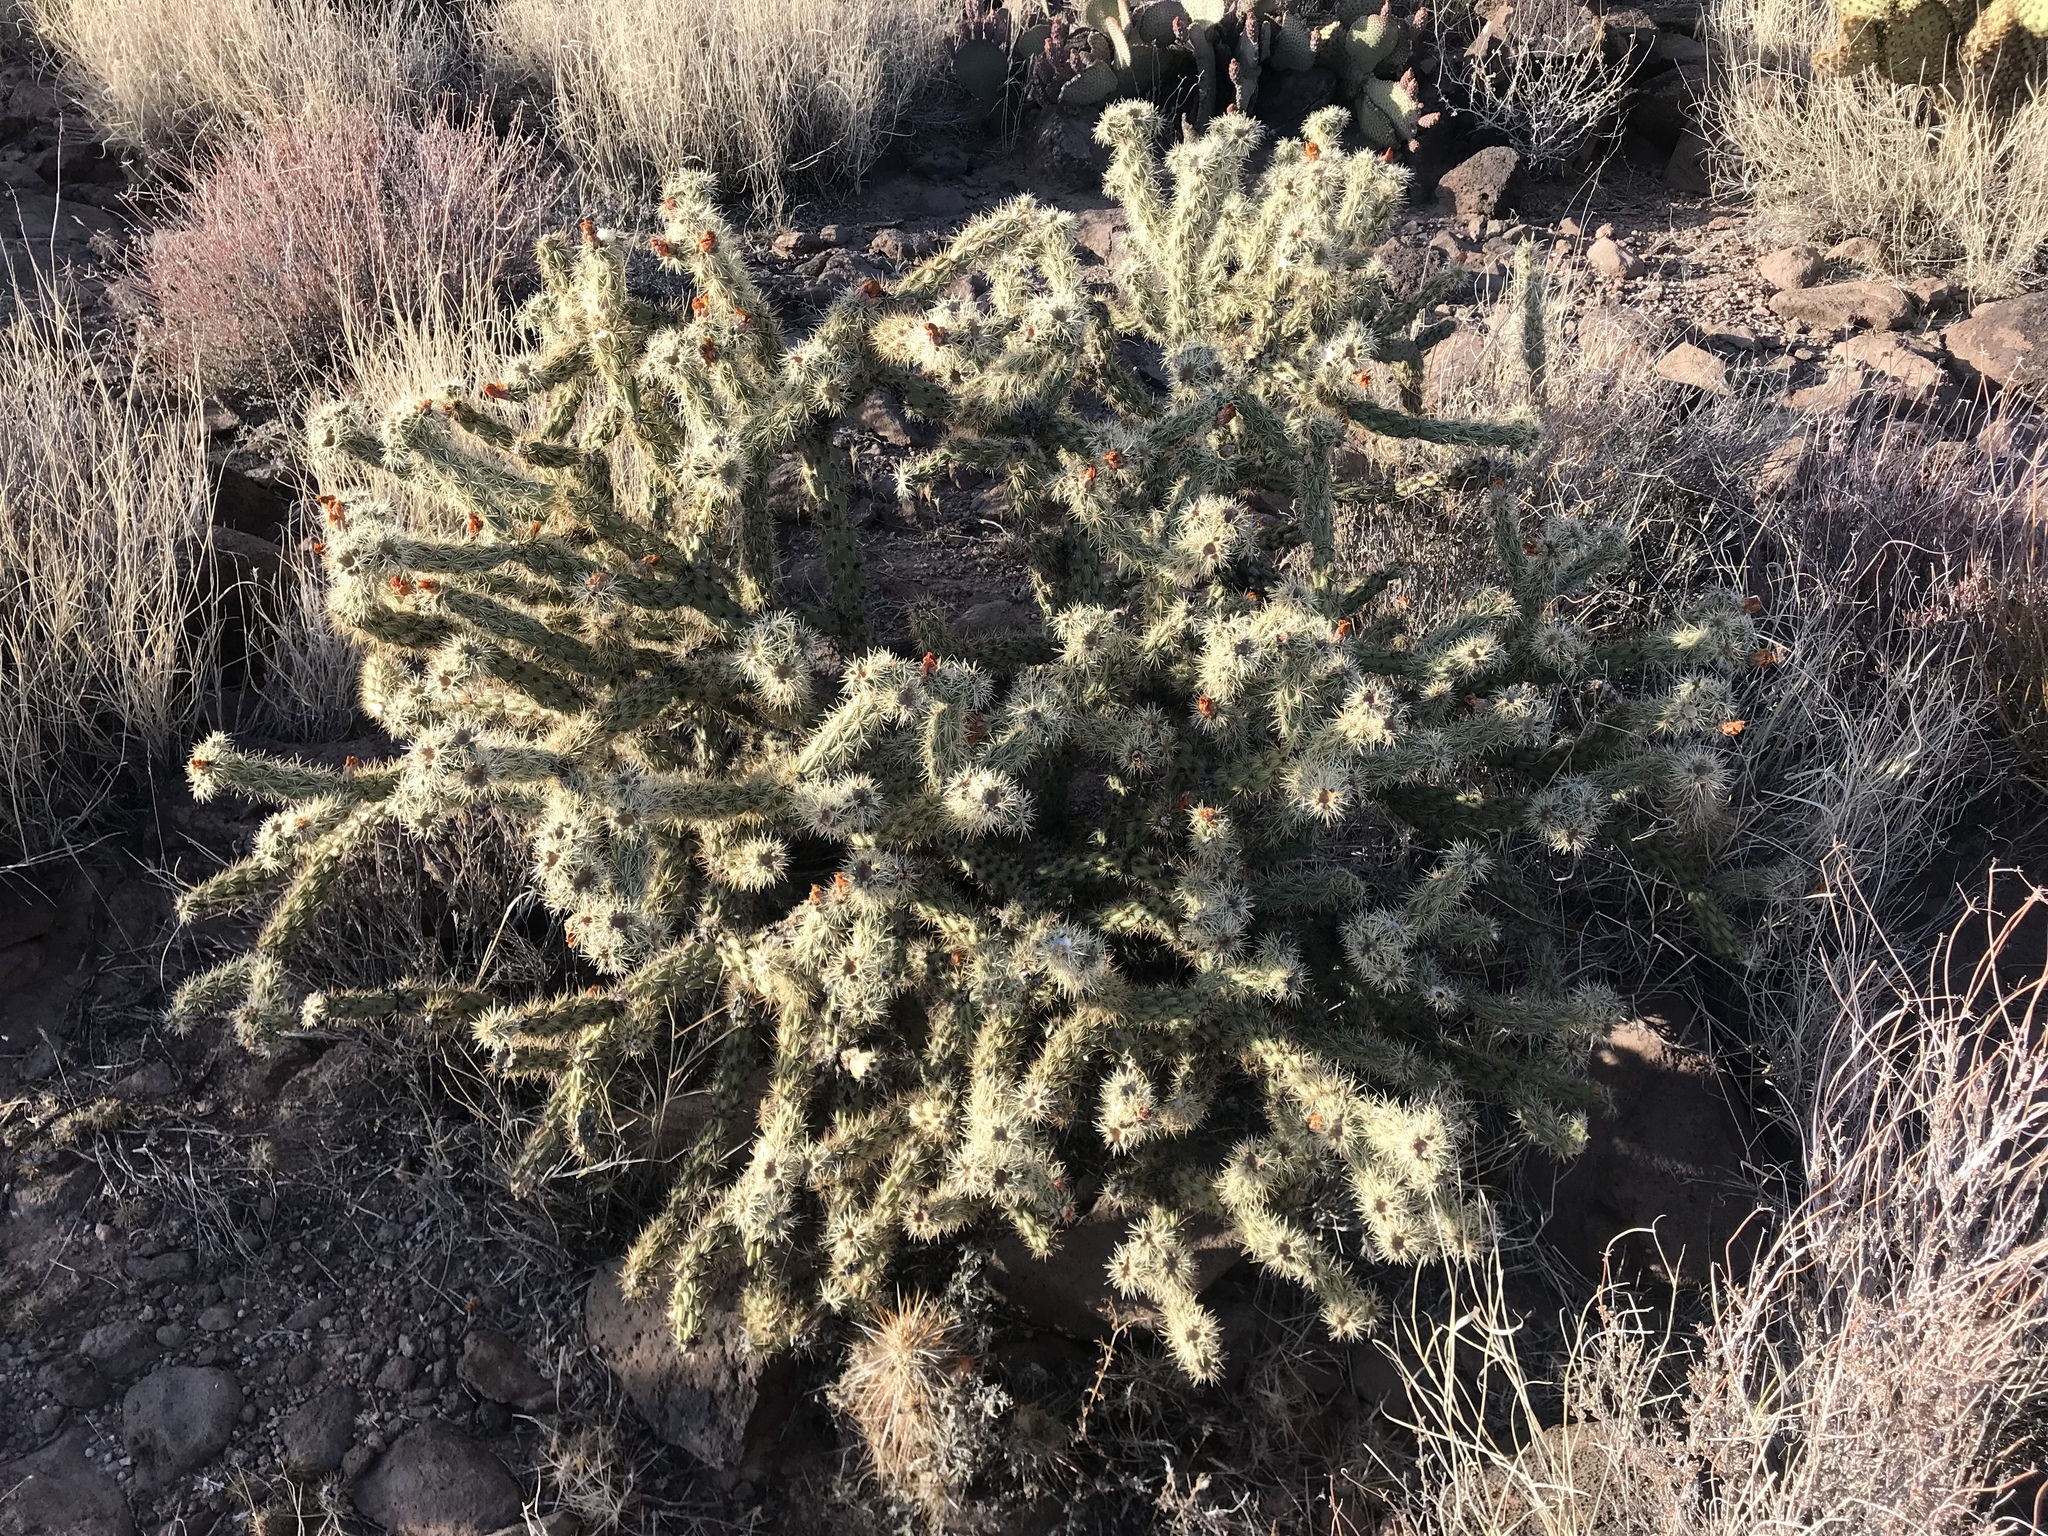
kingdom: Plantae
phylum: Tracheophyta
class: Magnoliopsida
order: Caryophyllales
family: Cactaceae
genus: Cylindropuntia
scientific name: Cylindropuntia acanthocarpa
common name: Buckhorn cholla
